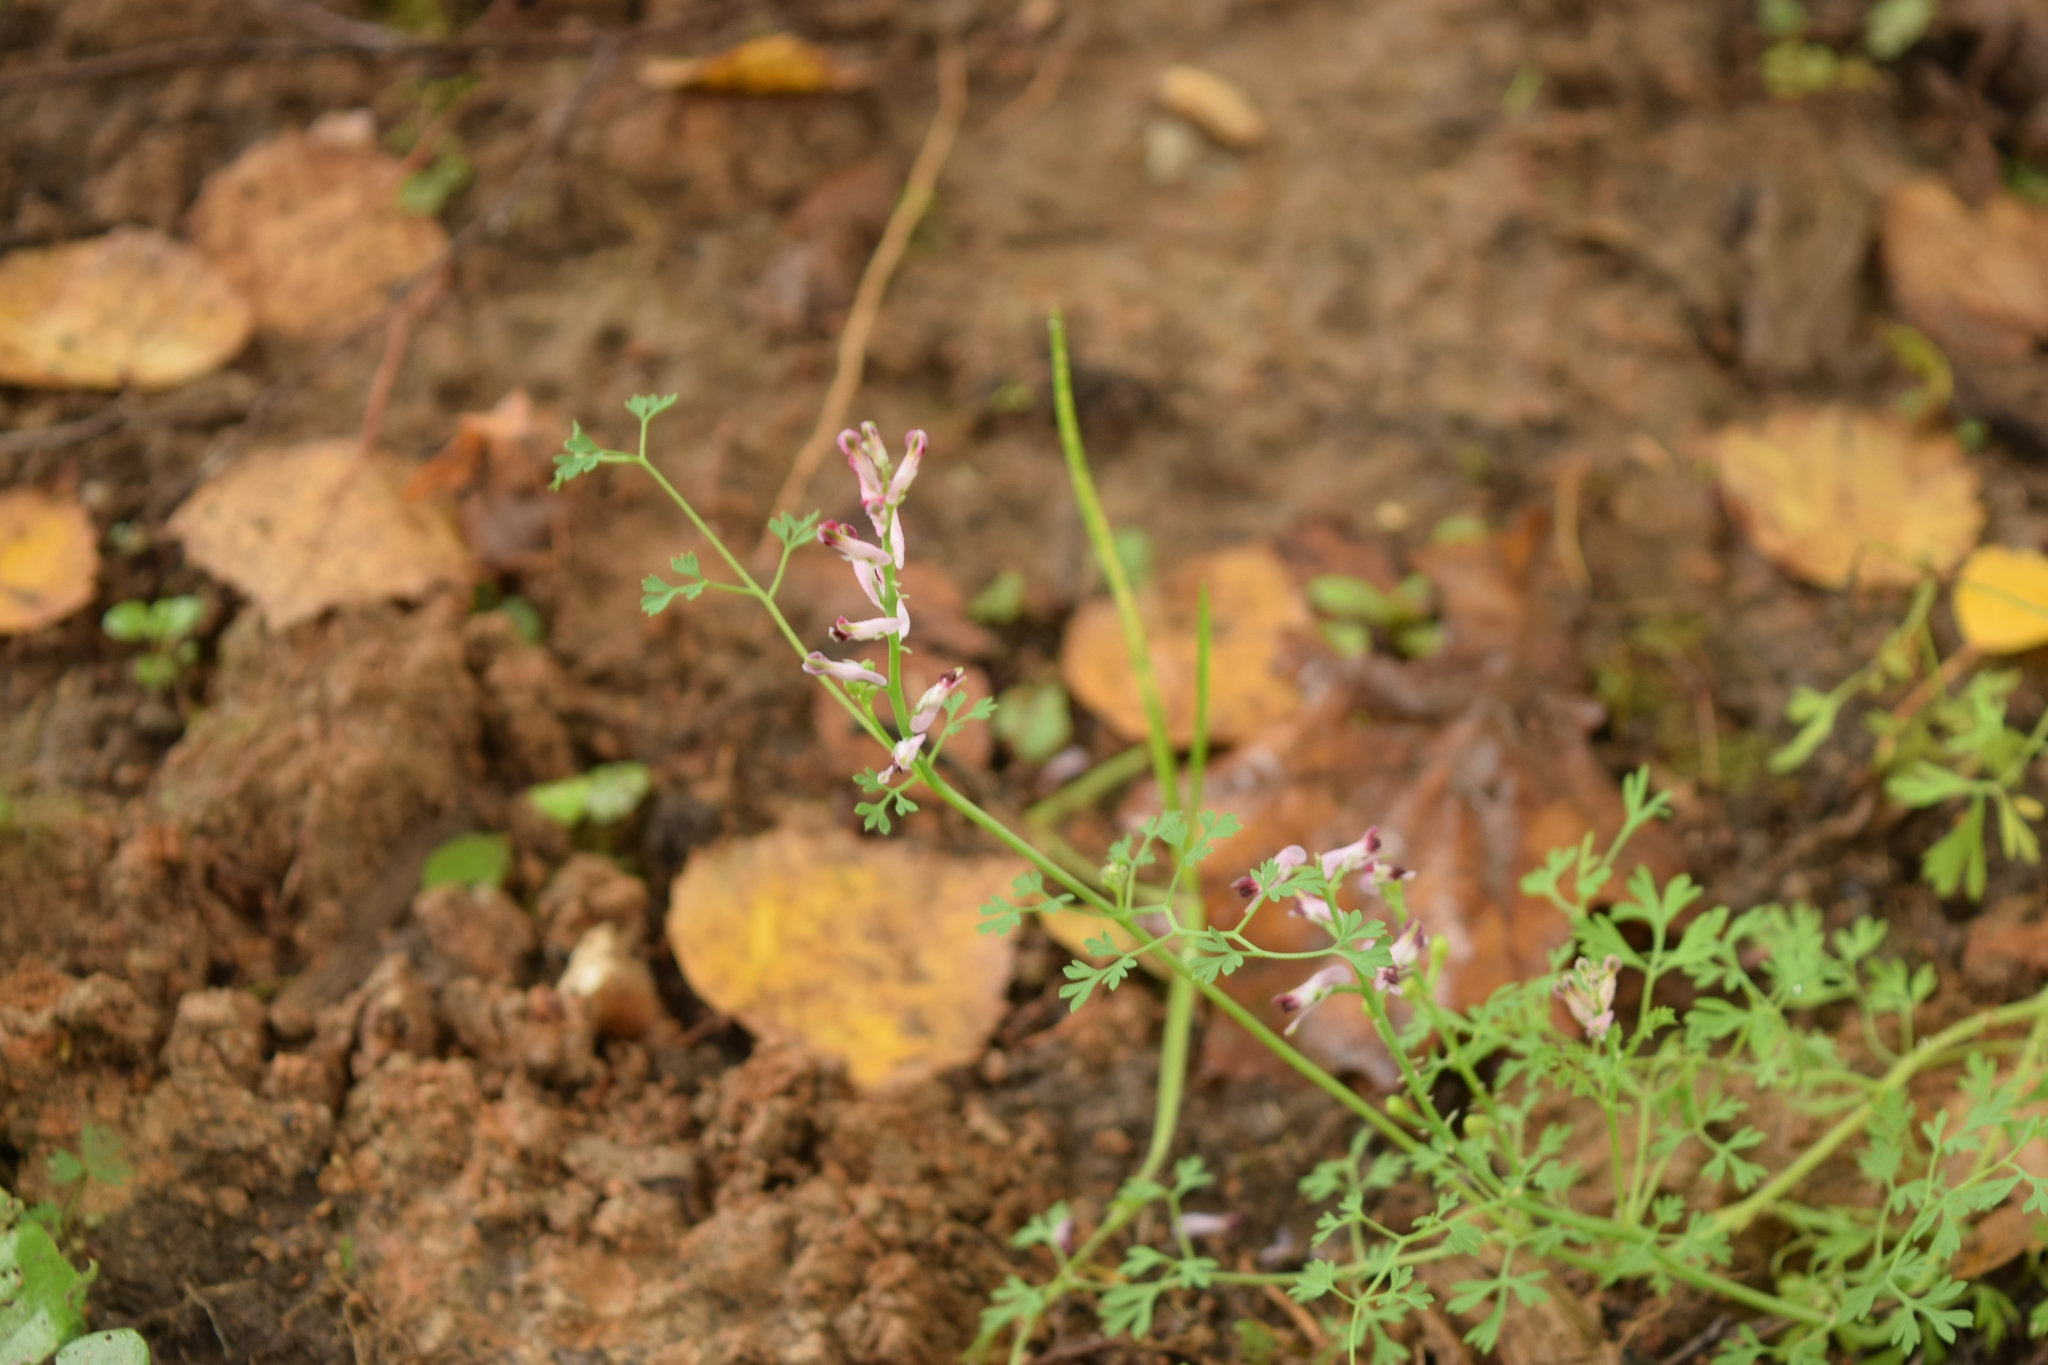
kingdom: Plantae
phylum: Tracheophyta
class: Magnoliopsida
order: Ranunculales
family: Papaveraceae
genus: Fumaria
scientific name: Fumaria officinalis
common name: Common fumitory
